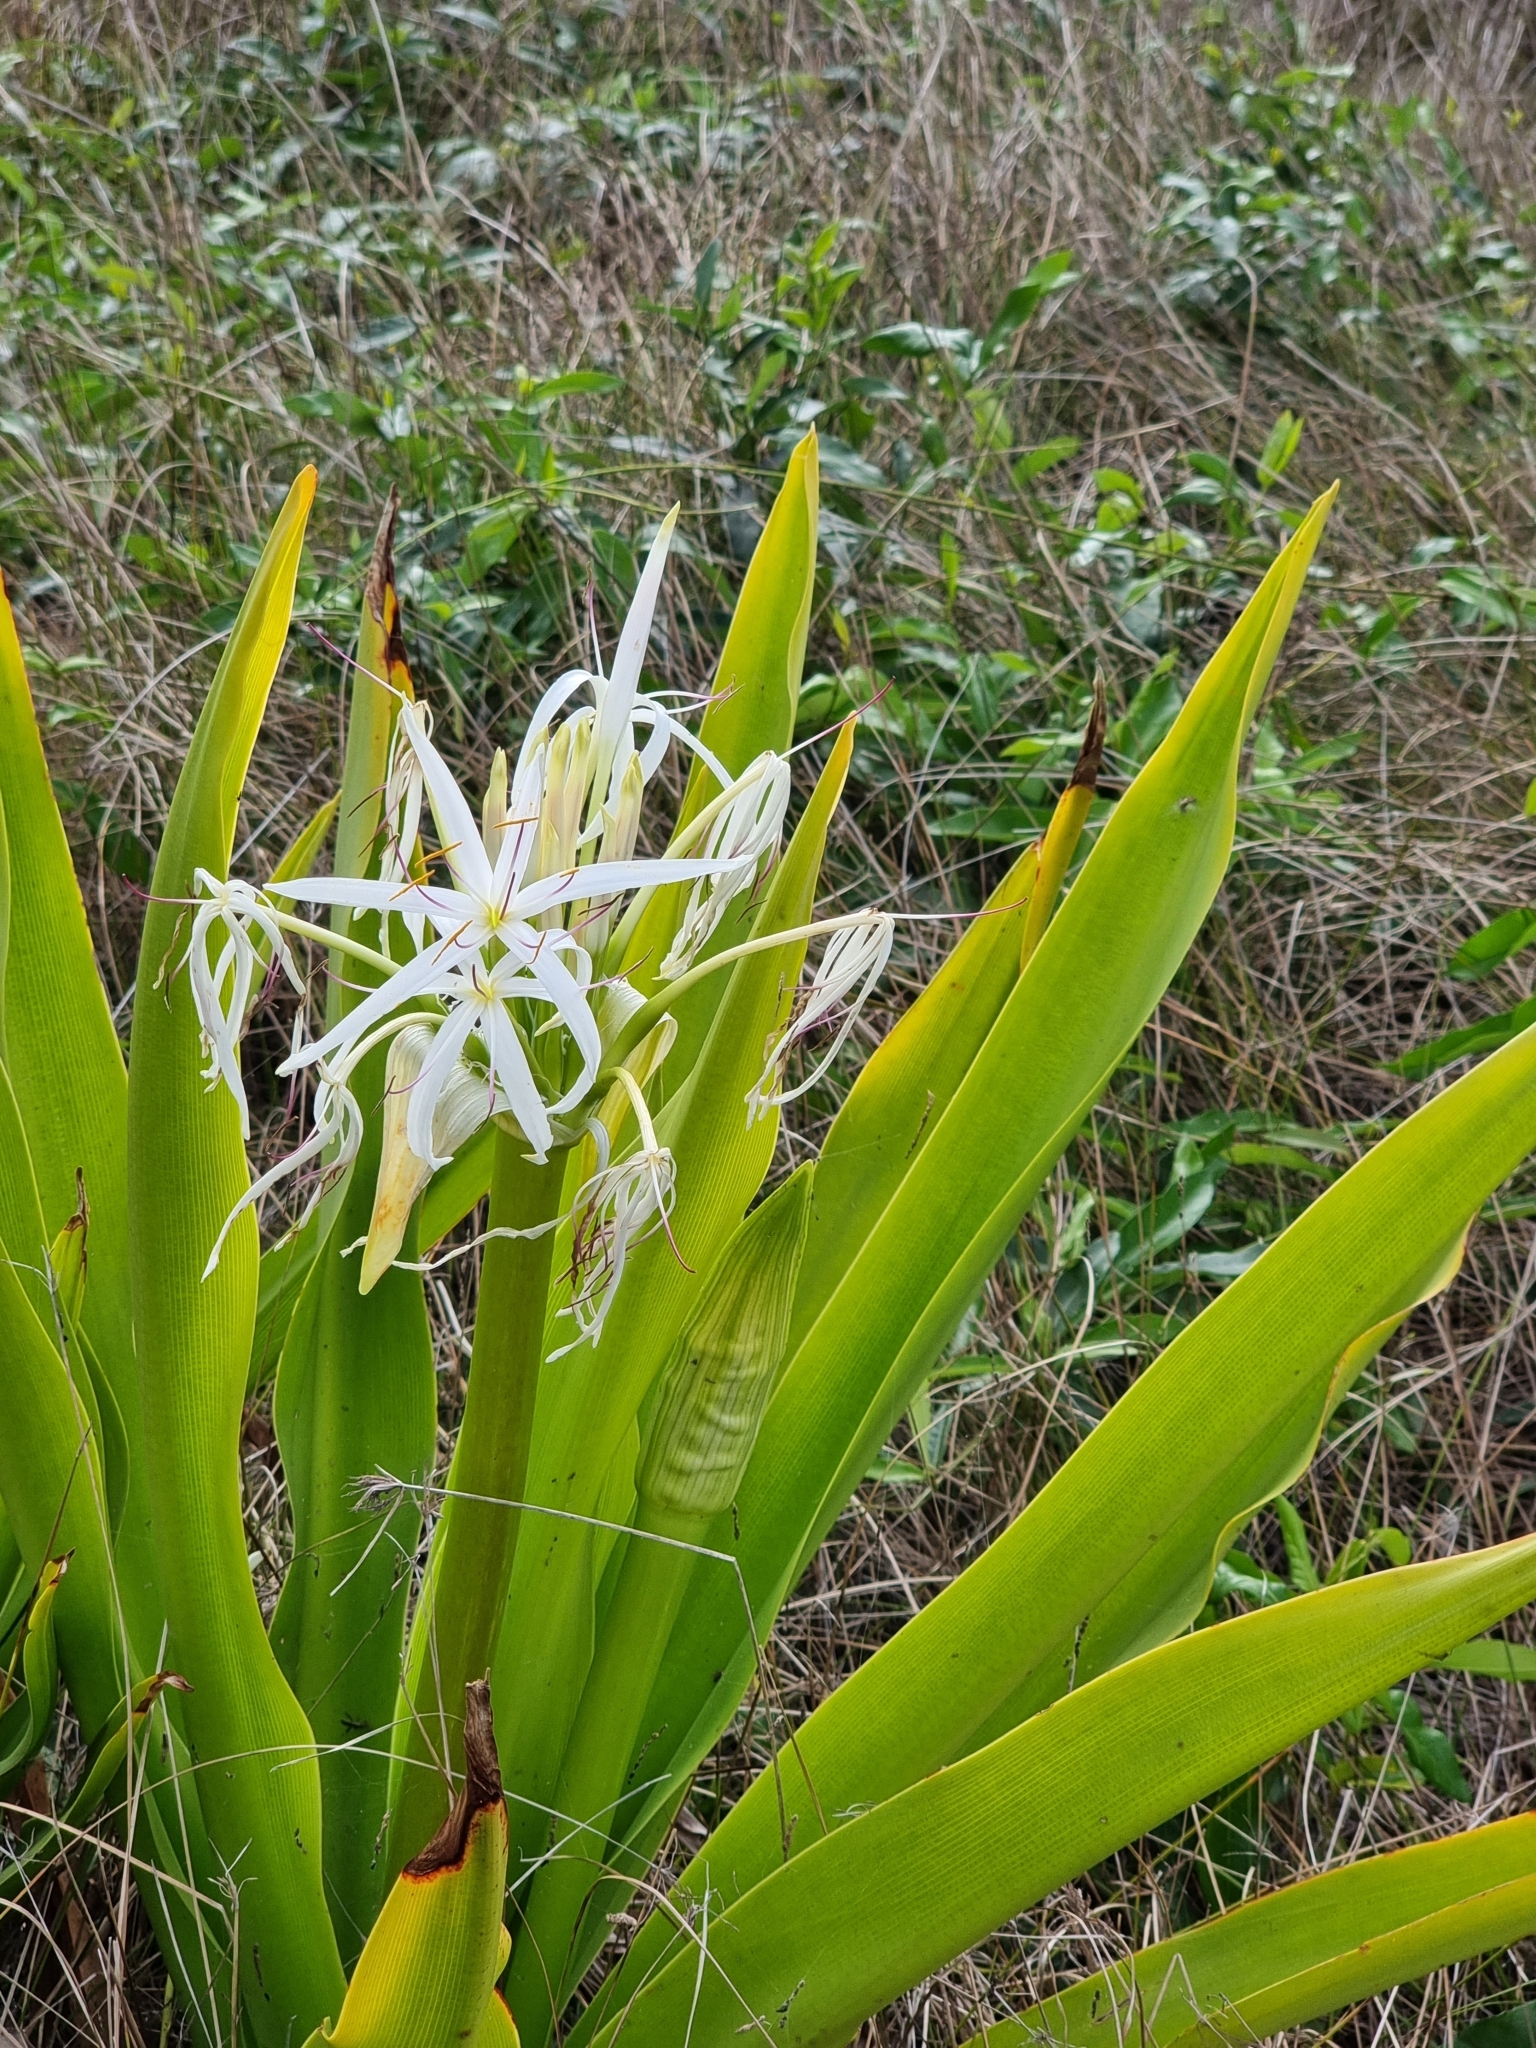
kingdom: Plantae
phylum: Tracheophyta
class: Liliopsida
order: Asparagales
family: Amaryllidaceae
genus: Crinum
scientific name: Crinum pedunculatum
